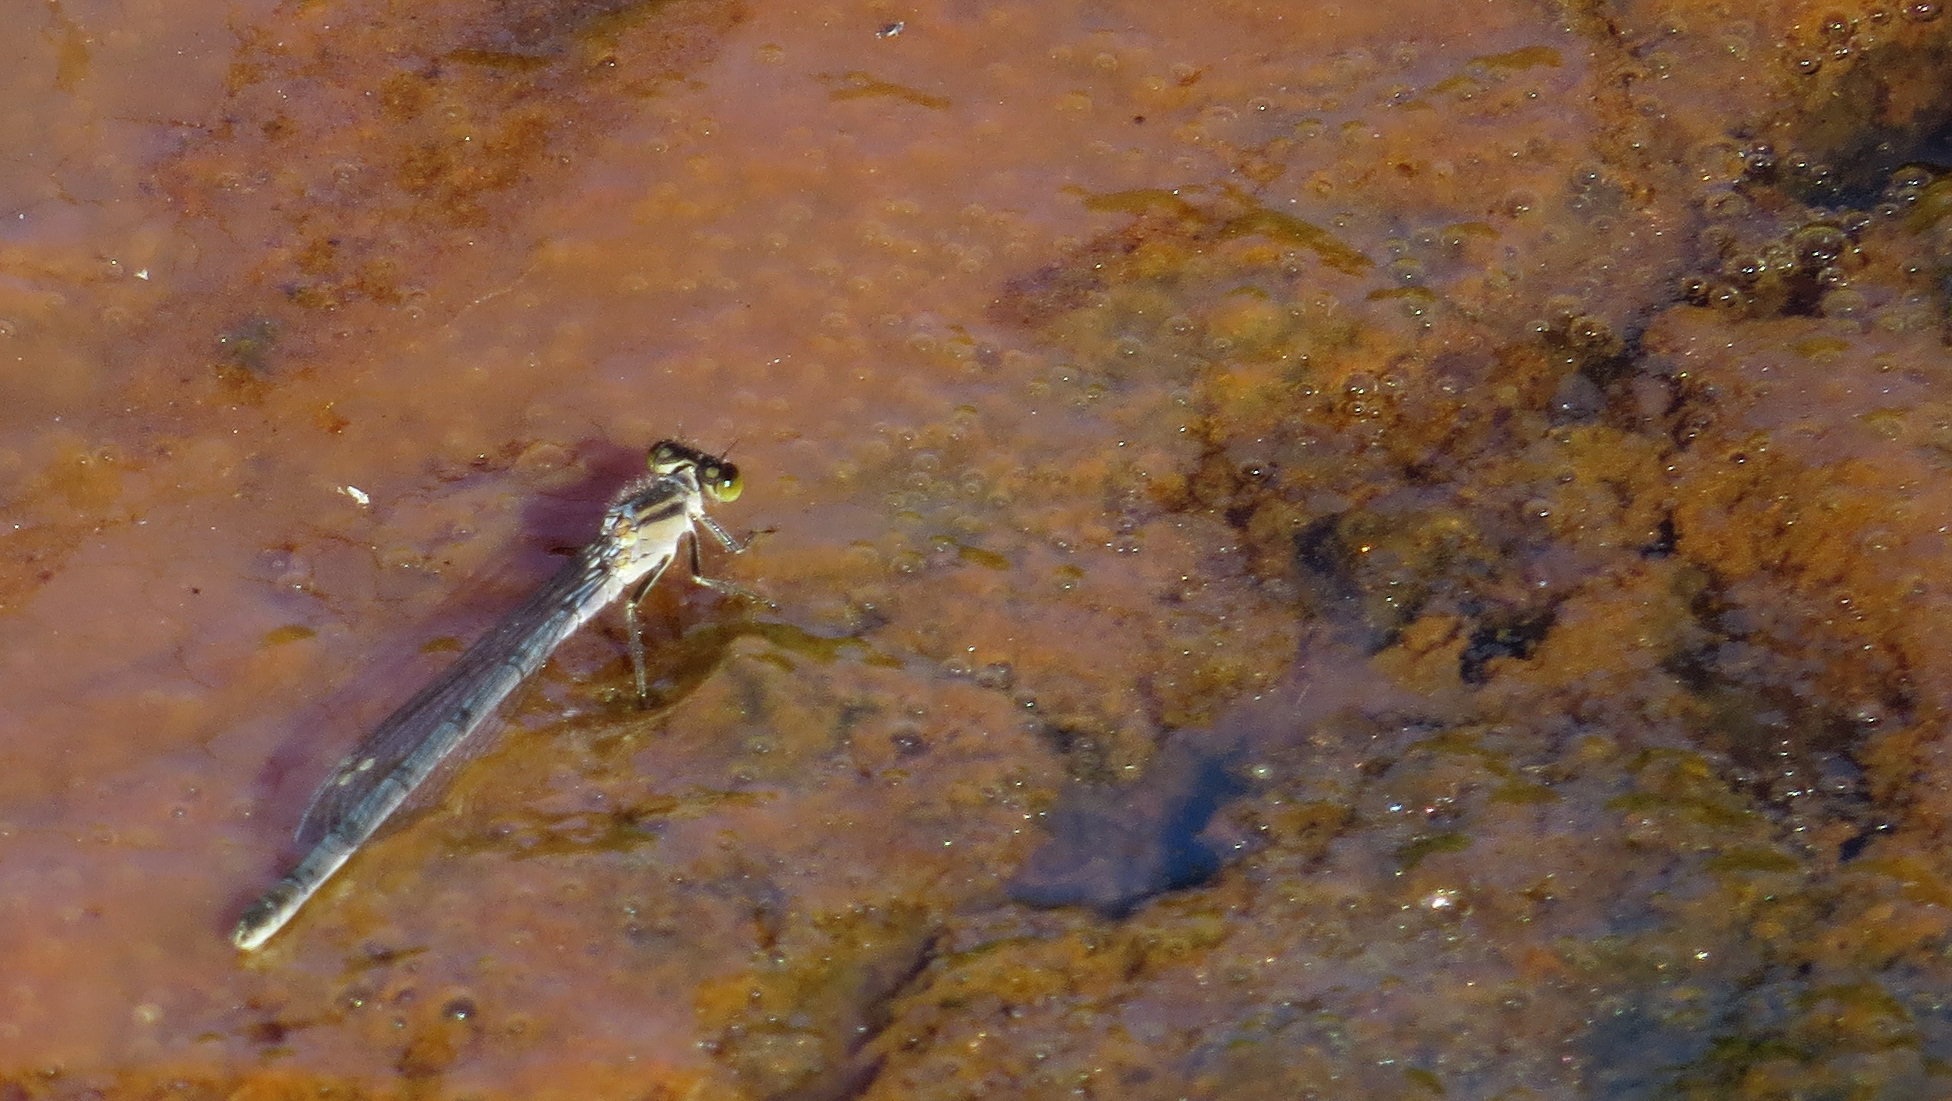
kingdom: Animalia
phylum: Arthropoda
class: Insecta
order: Odonata
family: Coenagrionidae
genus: Ischnura
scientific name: Ischnura heterosticta
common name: Common bluetail
